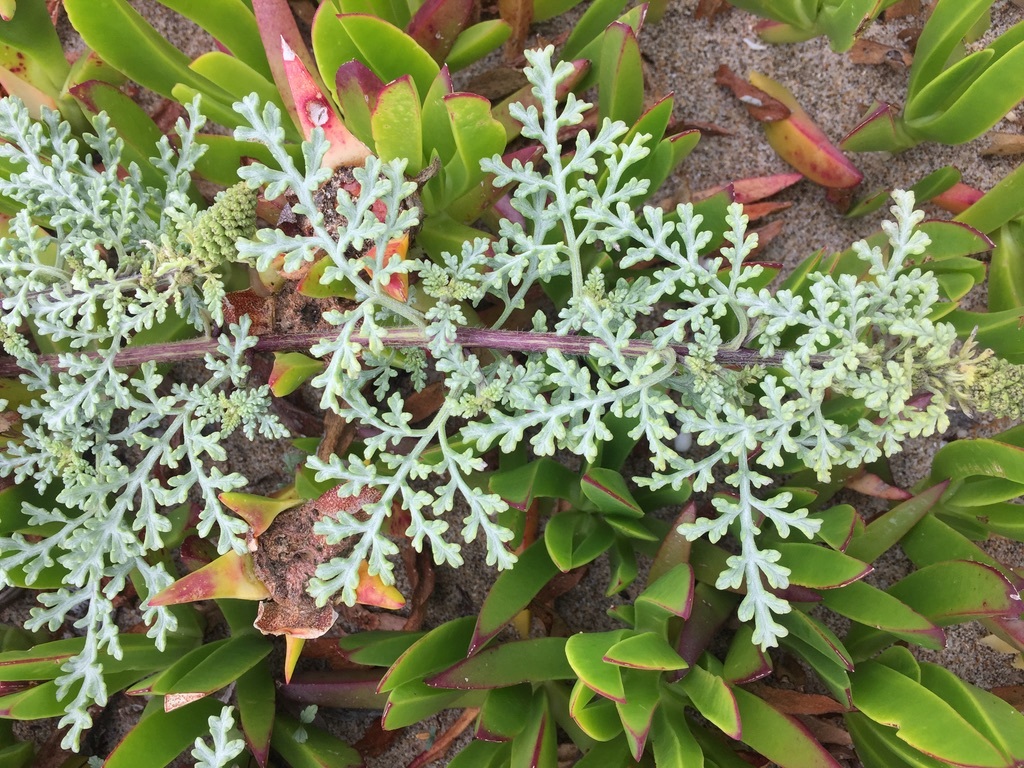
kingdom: Plantae
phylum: Tracheophyta
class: Magnoliopsida
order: Asterales
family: Asteraceae
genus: Ambrosia
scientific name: Ambrosia chamissonis
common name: Beachbur
